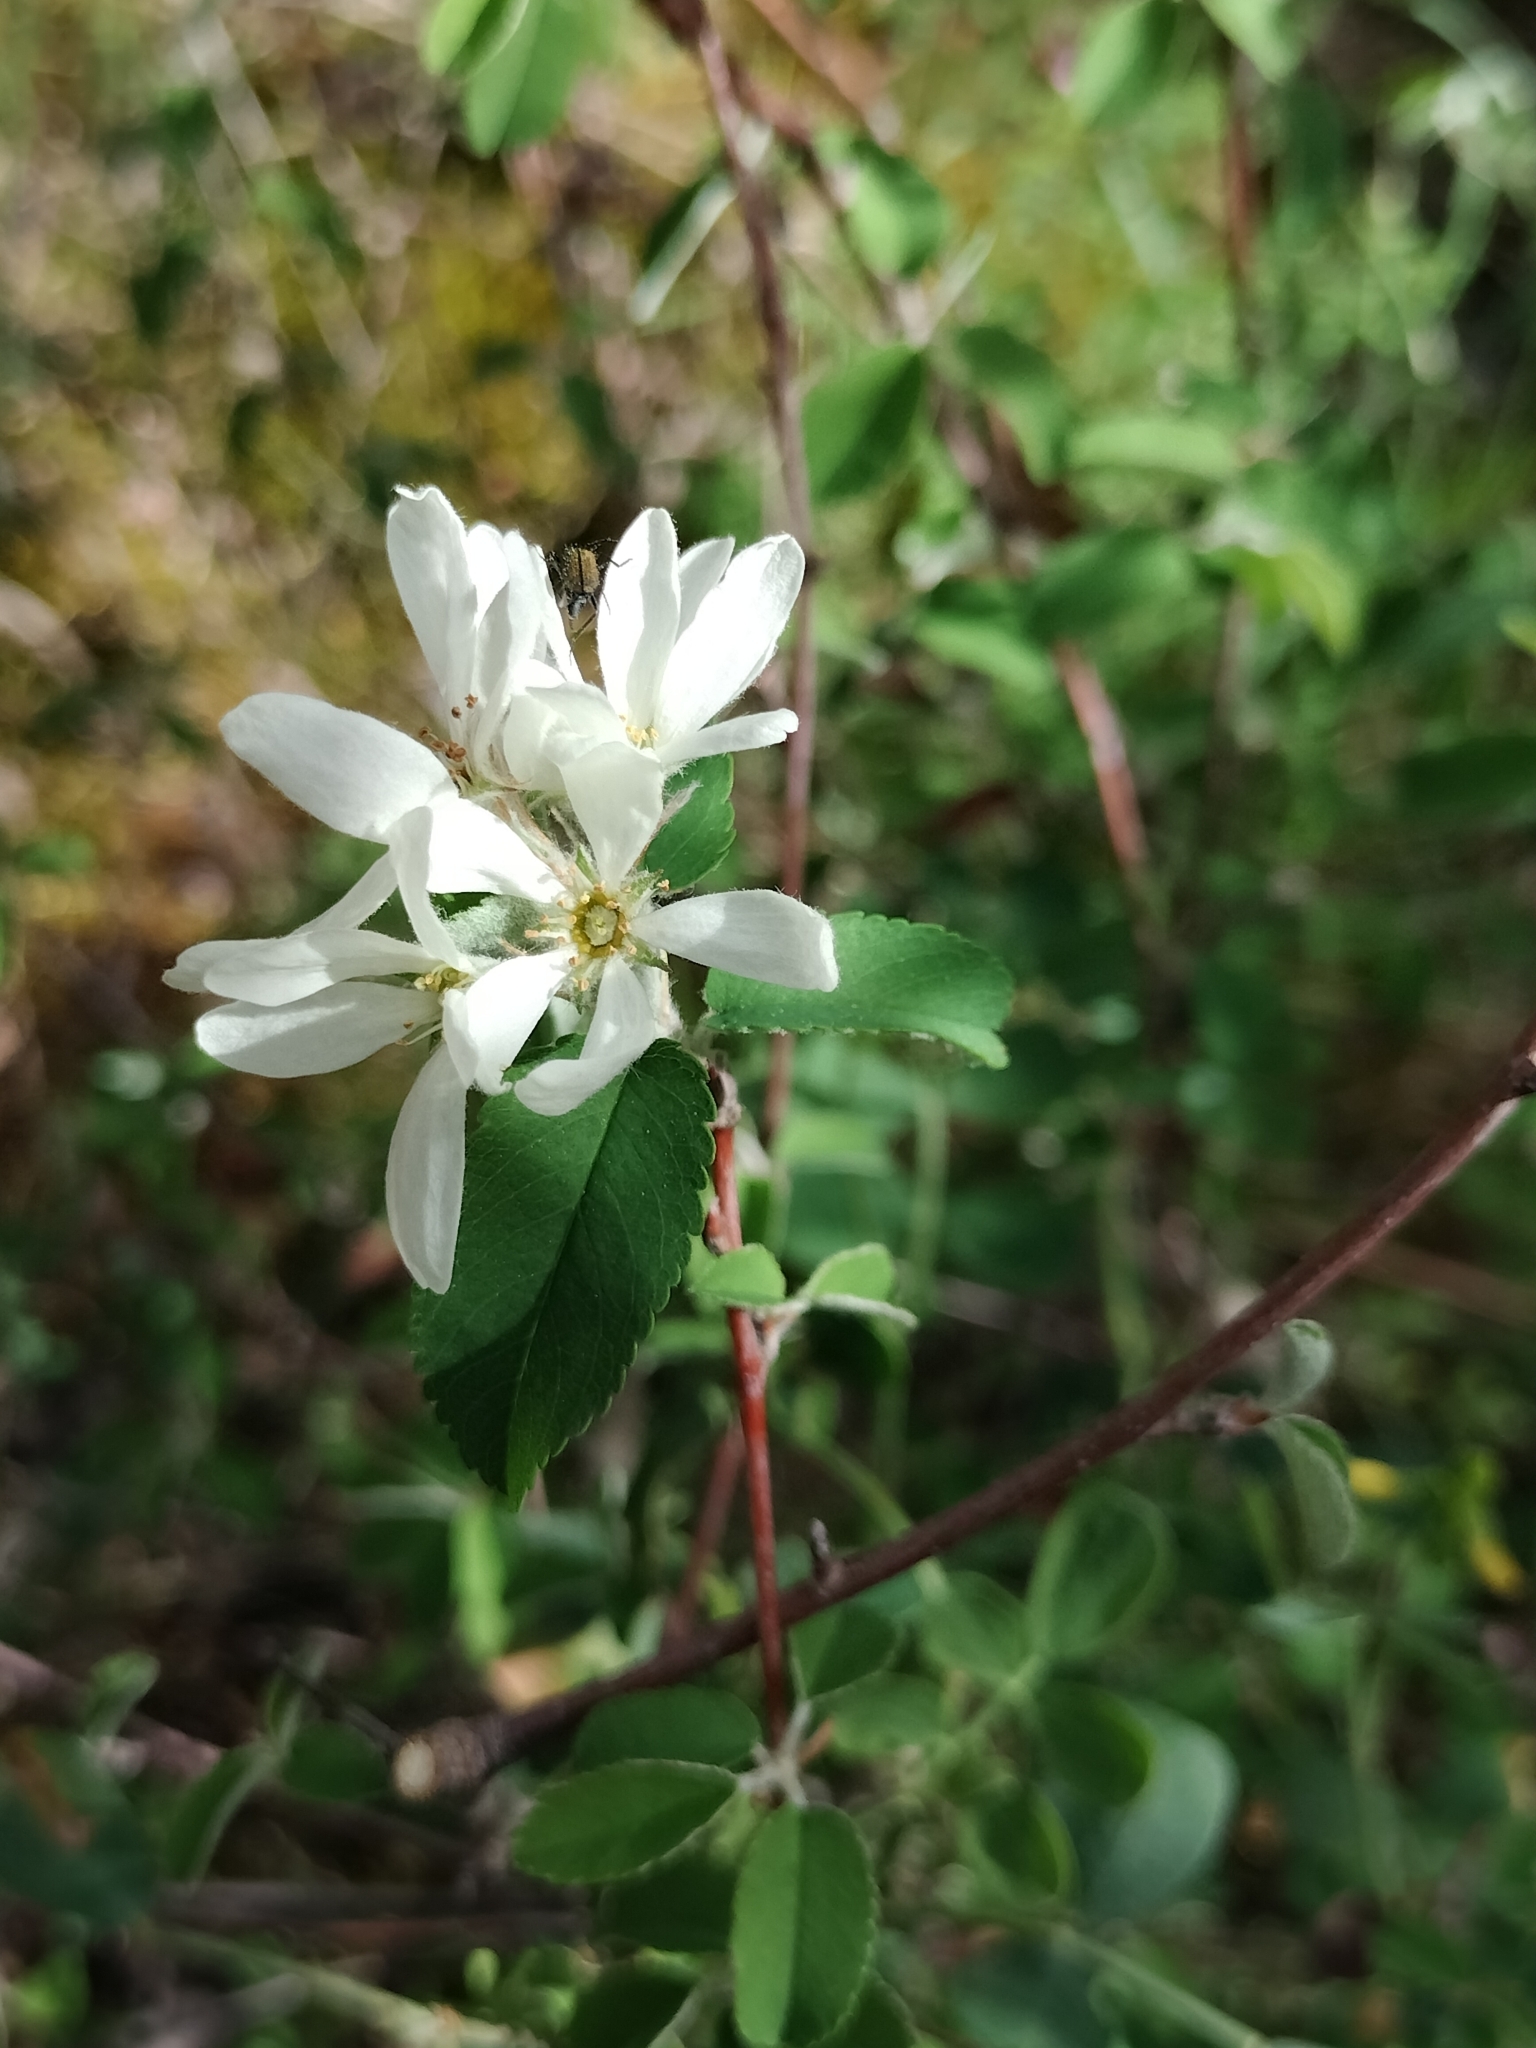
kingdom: Plantae
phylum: Tracheophyta
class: Magnoliopsida
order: Rosales
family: Rosaceae
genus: Amelanchier
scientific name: Amelanchier ovalis
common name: Serviceberry
